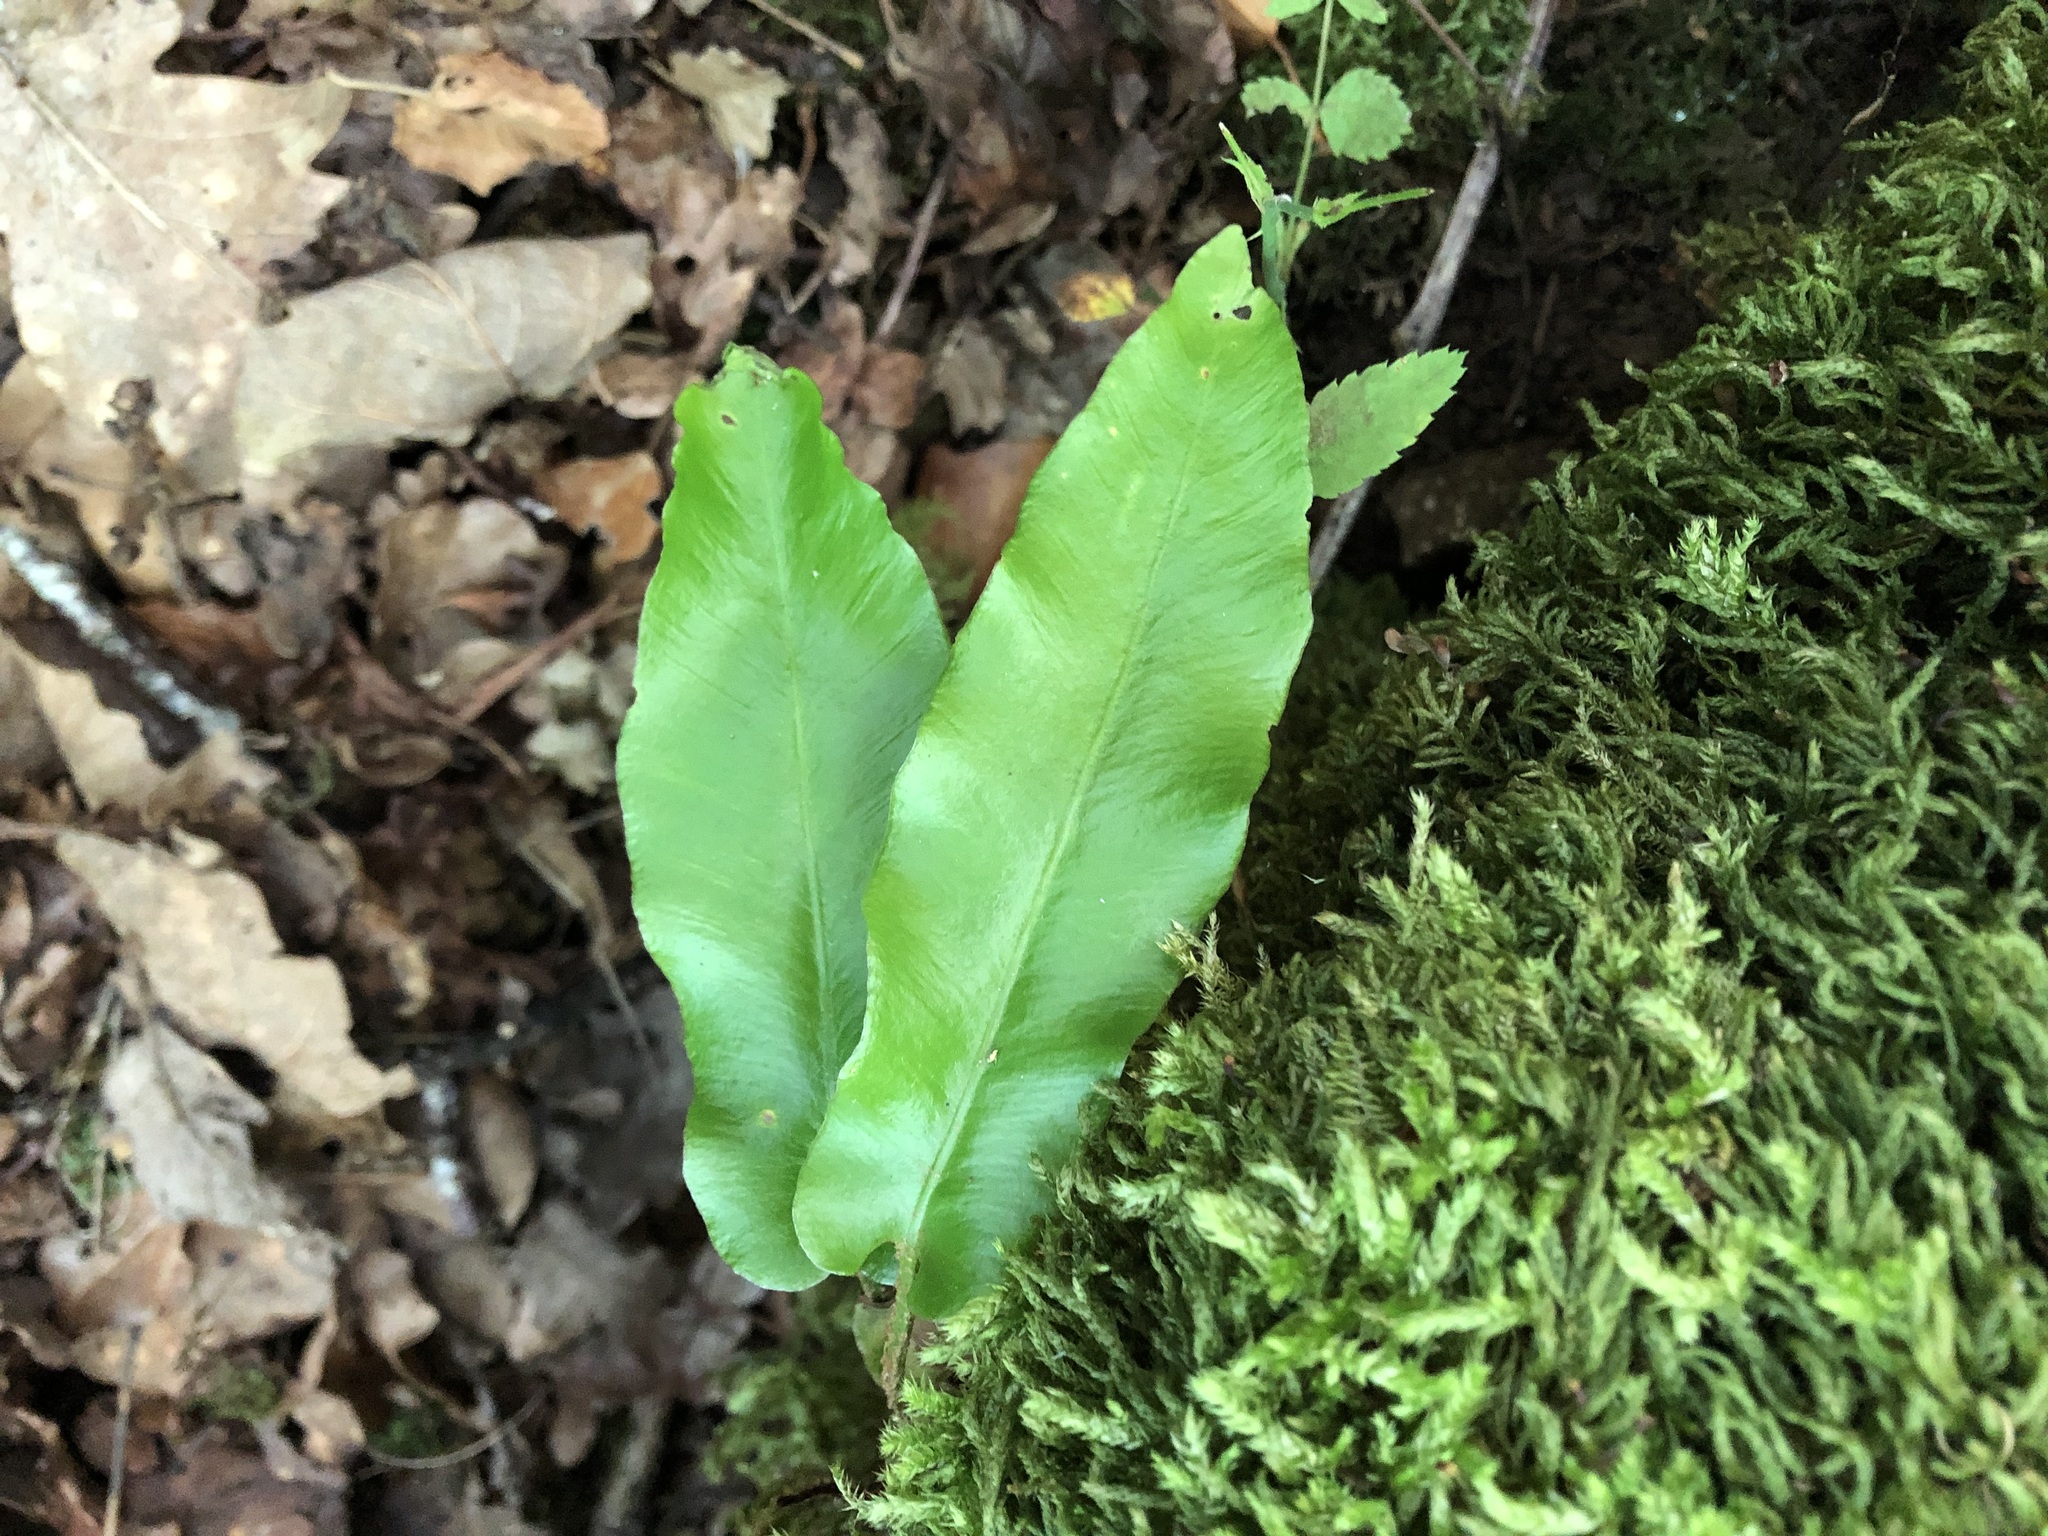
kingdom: Plantae
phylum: Tracheophyta
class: Polypodiopsida
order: Polypodiales
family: Aspleniaceae
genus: Asplenium
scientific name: Asplenium scolopendrium
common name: Hart's-tongue fern
